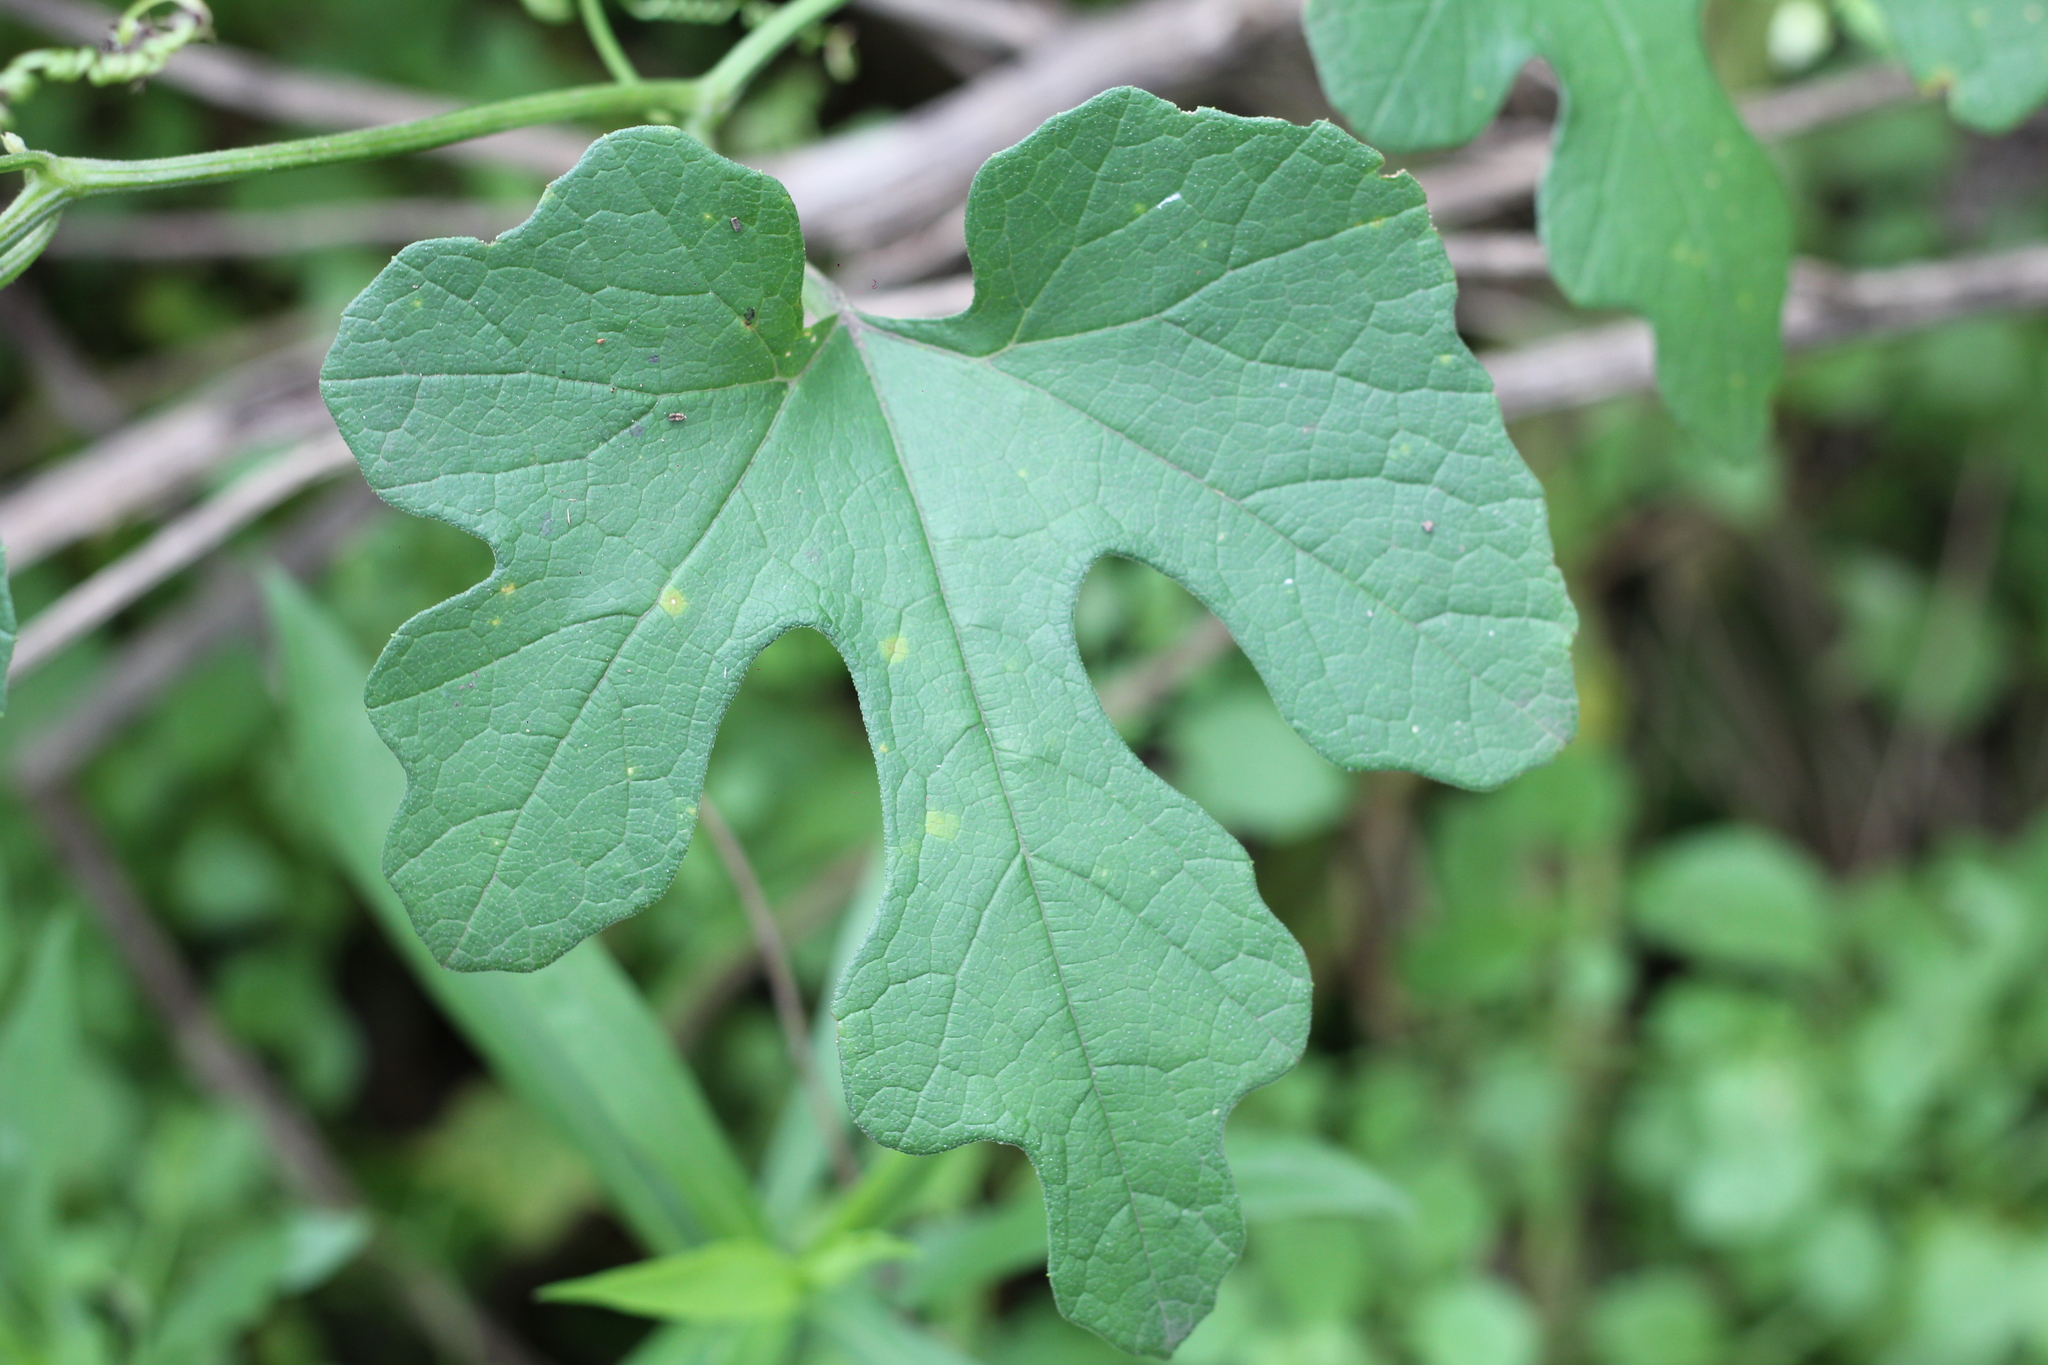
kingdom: Plantae
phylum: Tracheophyta
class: Magnoliopsida
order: Cucurbitales
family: Cucurbitaceae
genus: Cayaponia
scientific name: Cayaponia bonariensis
